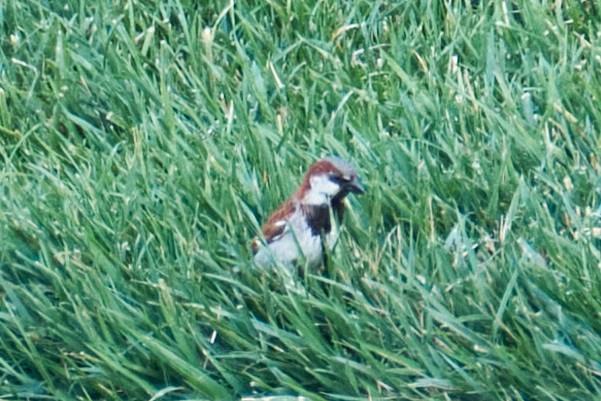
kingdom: Animalia
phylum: Chordata
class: Aves
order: Passeriformes
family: Passeridae
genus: Passer
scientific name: Passer domesticus
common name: House sparrow
